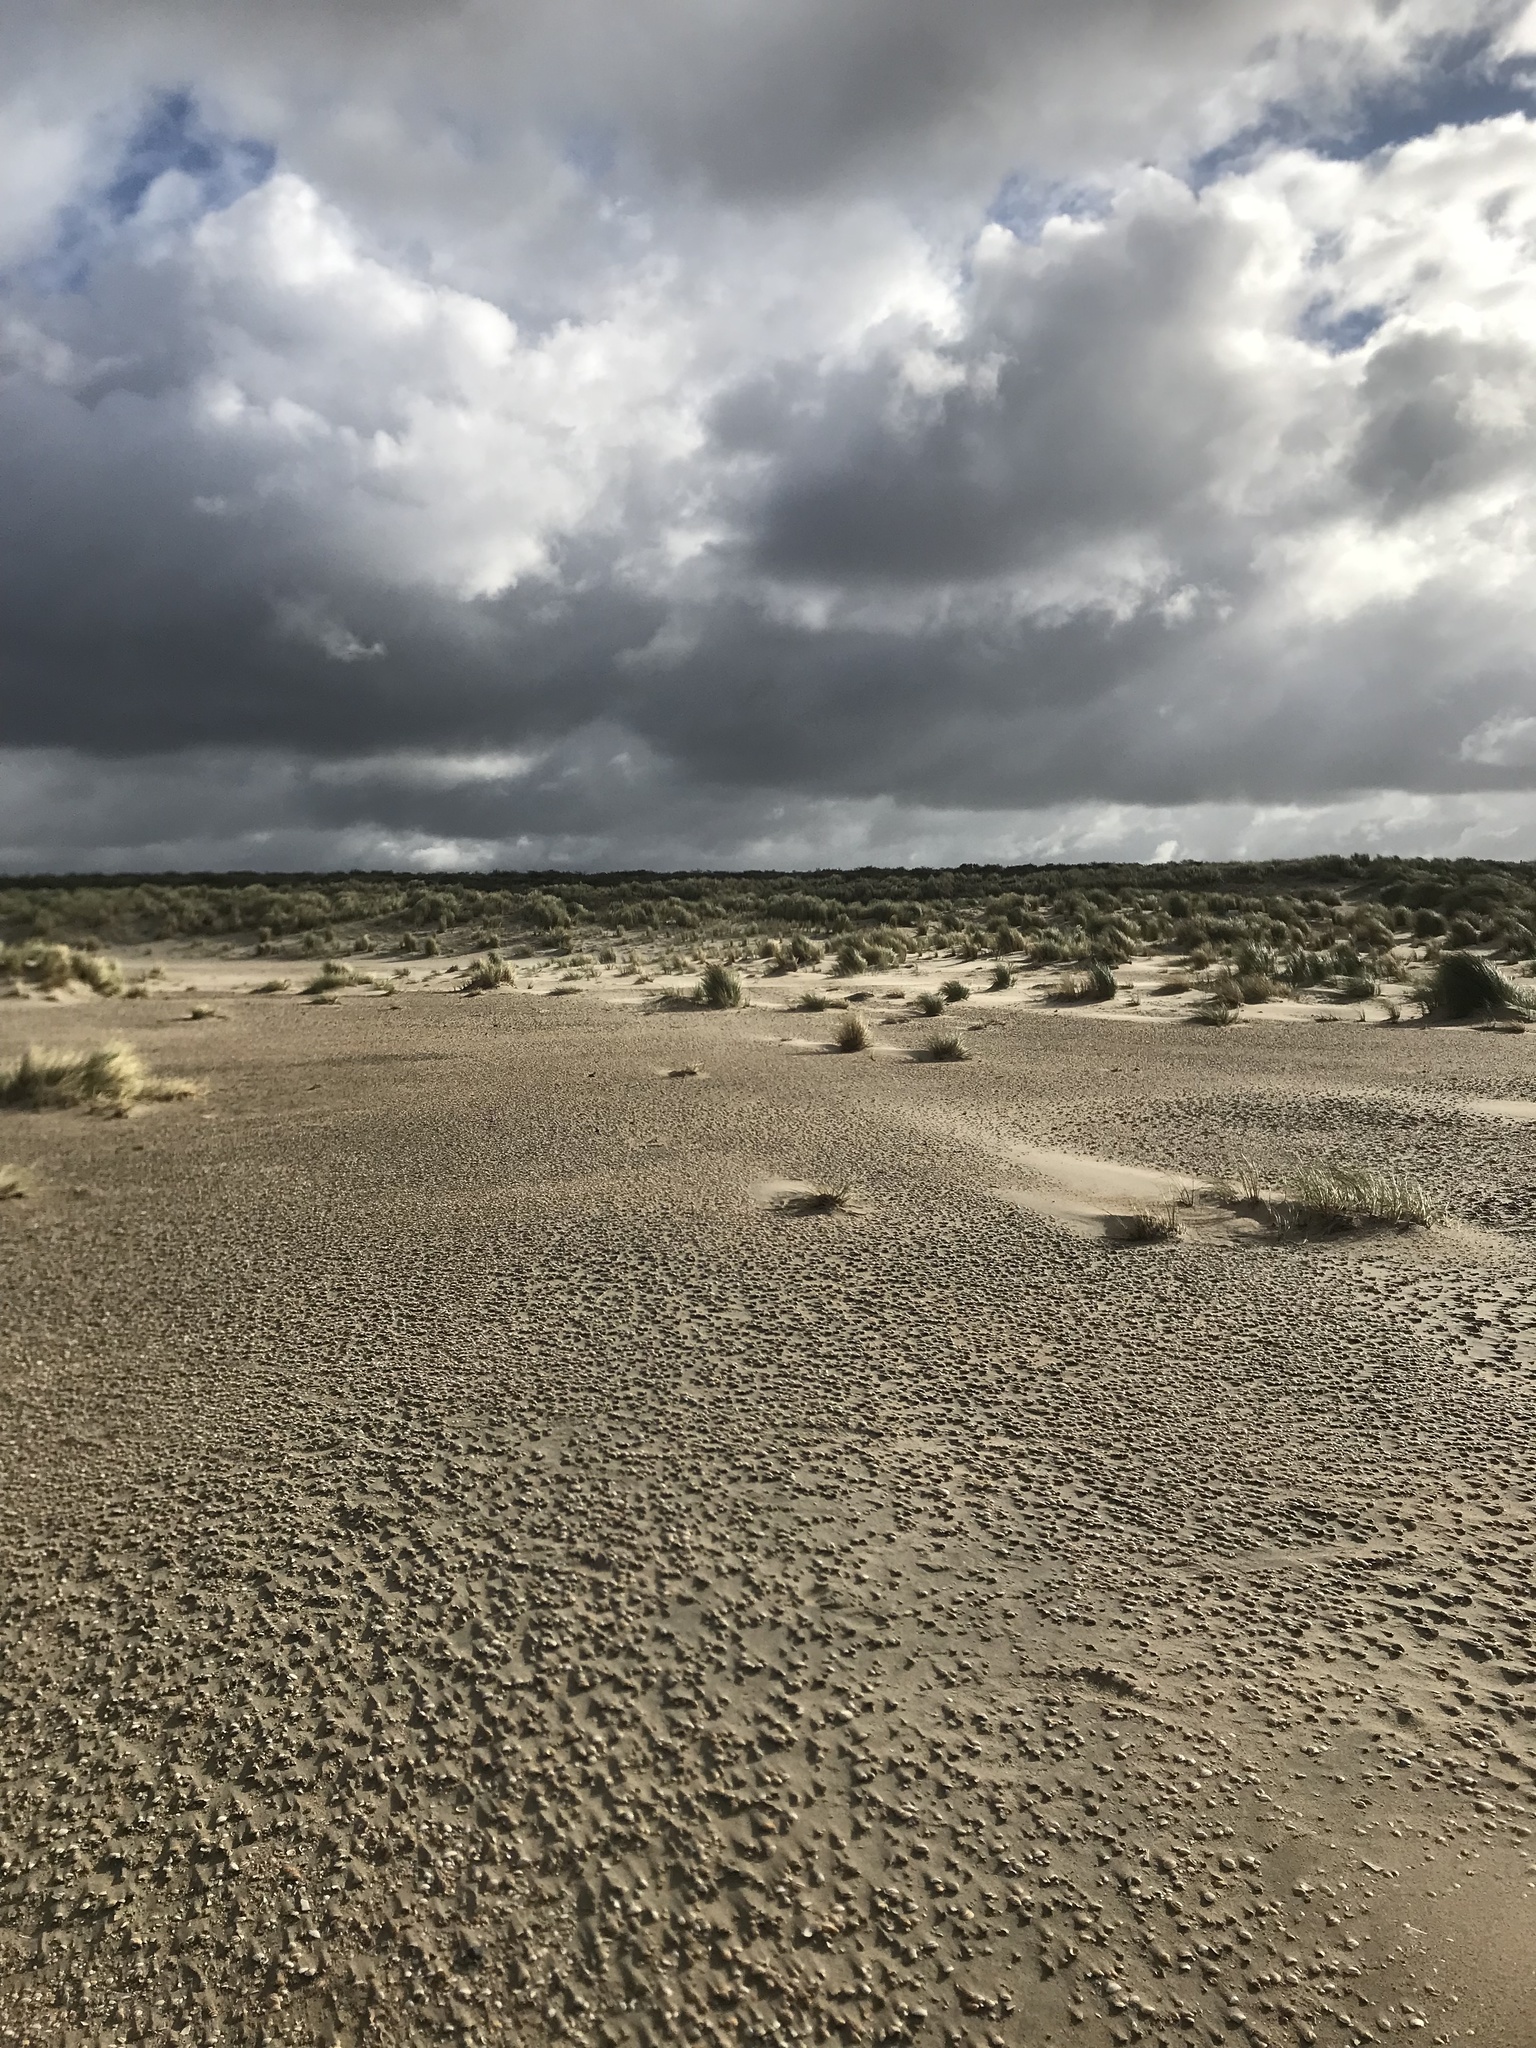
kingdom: Plantae
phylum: Tracheophyta
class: Liliopsida
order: Poales
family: Poaceae
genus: Calamagrostis
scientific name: Calamagrostis arenaria
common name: European beachgrass
